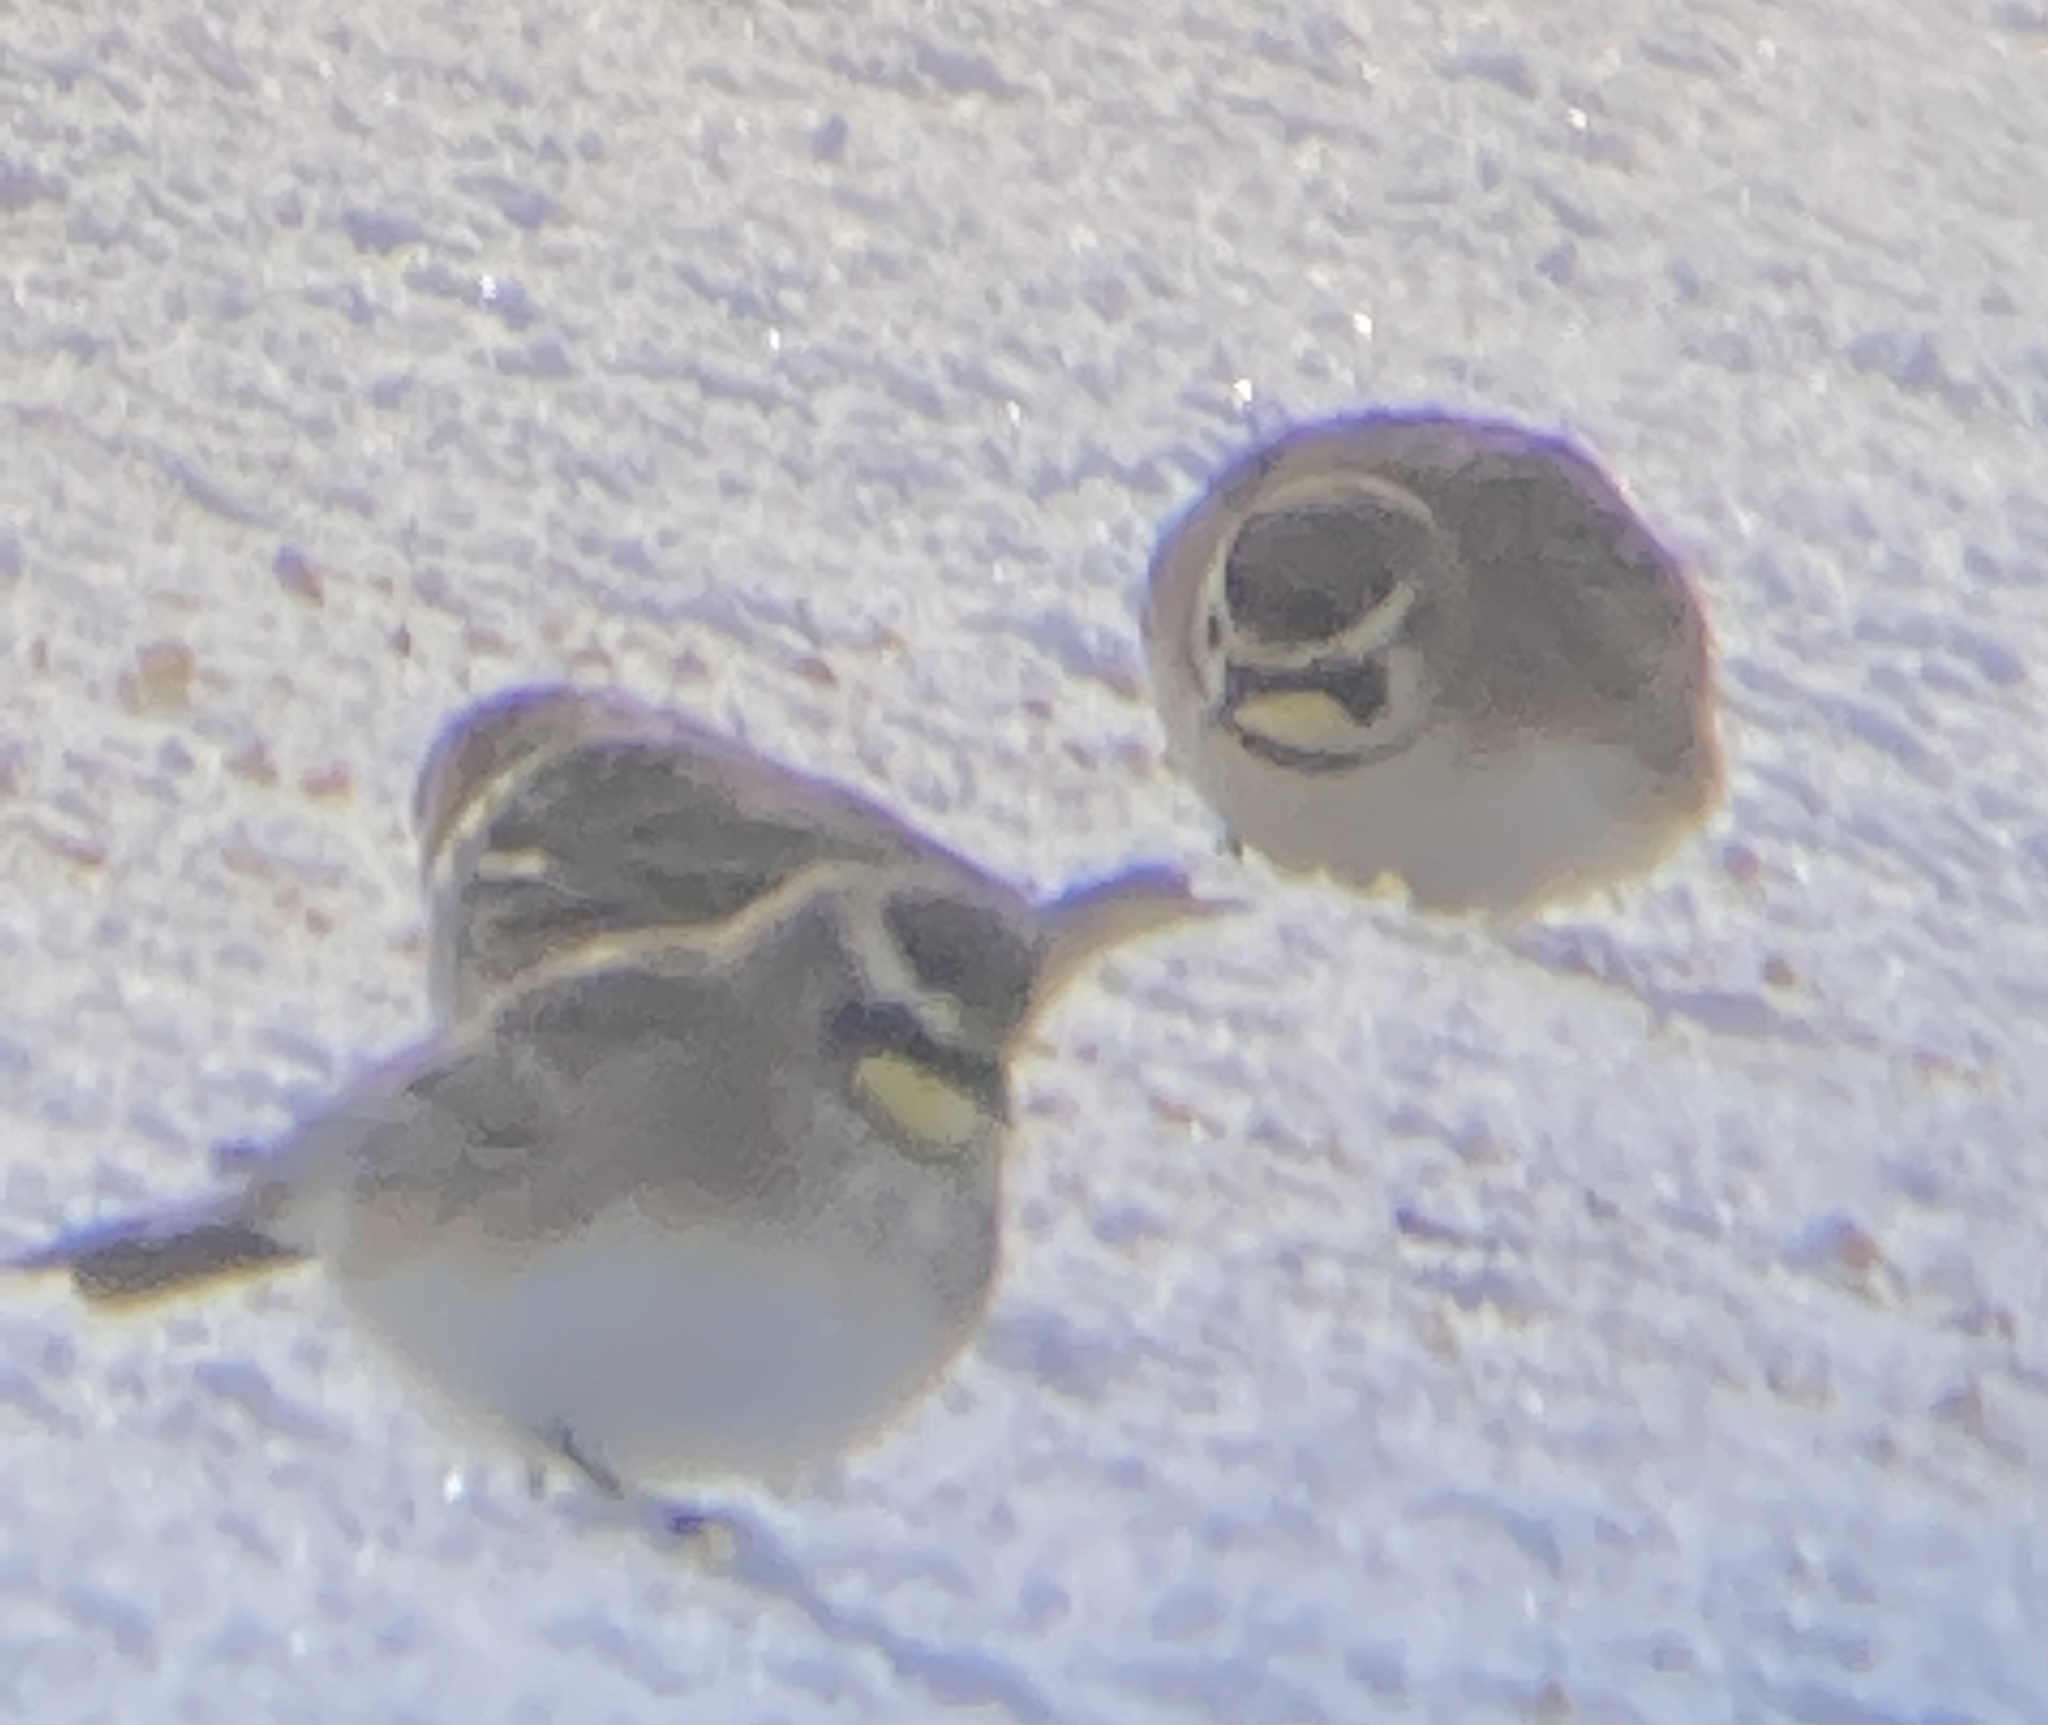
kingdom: Animalia
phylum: Chordata
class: Aves
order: Passeriformes
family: Alaudidae
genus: Eremophila
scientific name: Eremophila alpestris
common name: Horned lark
